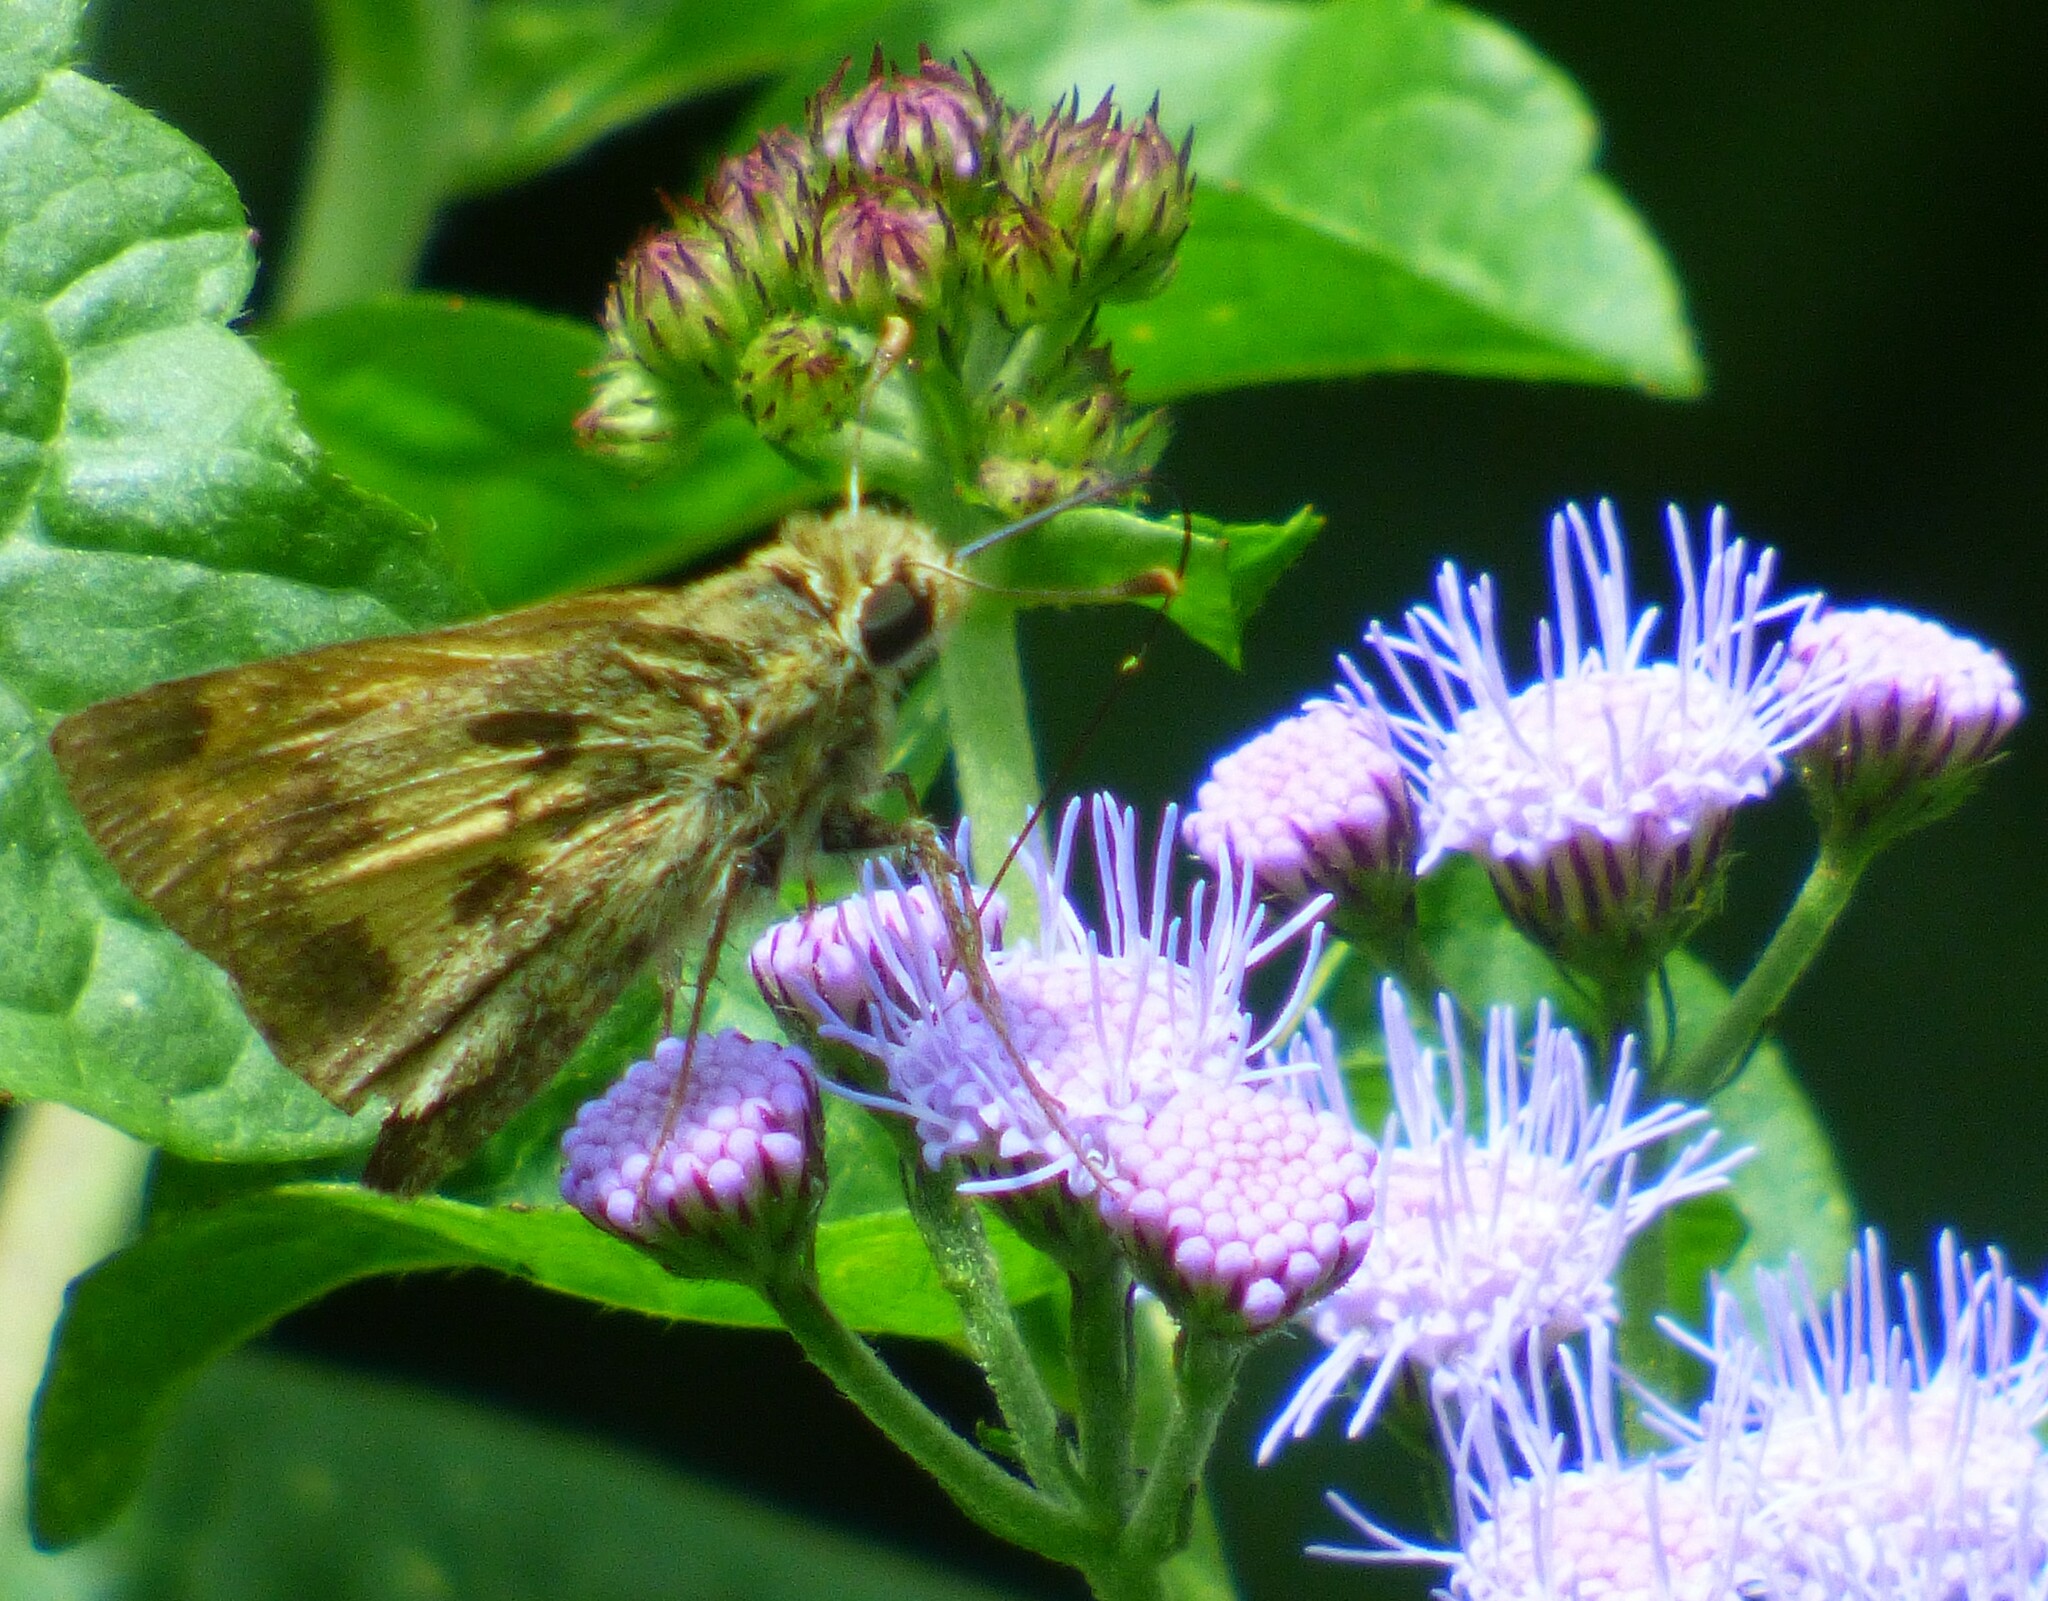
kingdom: Animalia
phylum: Arthropoda
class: Insecta
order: Lepidoptera
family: Hesperiidae
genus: Polites
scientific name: Polites vibex
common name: Whirlabout
